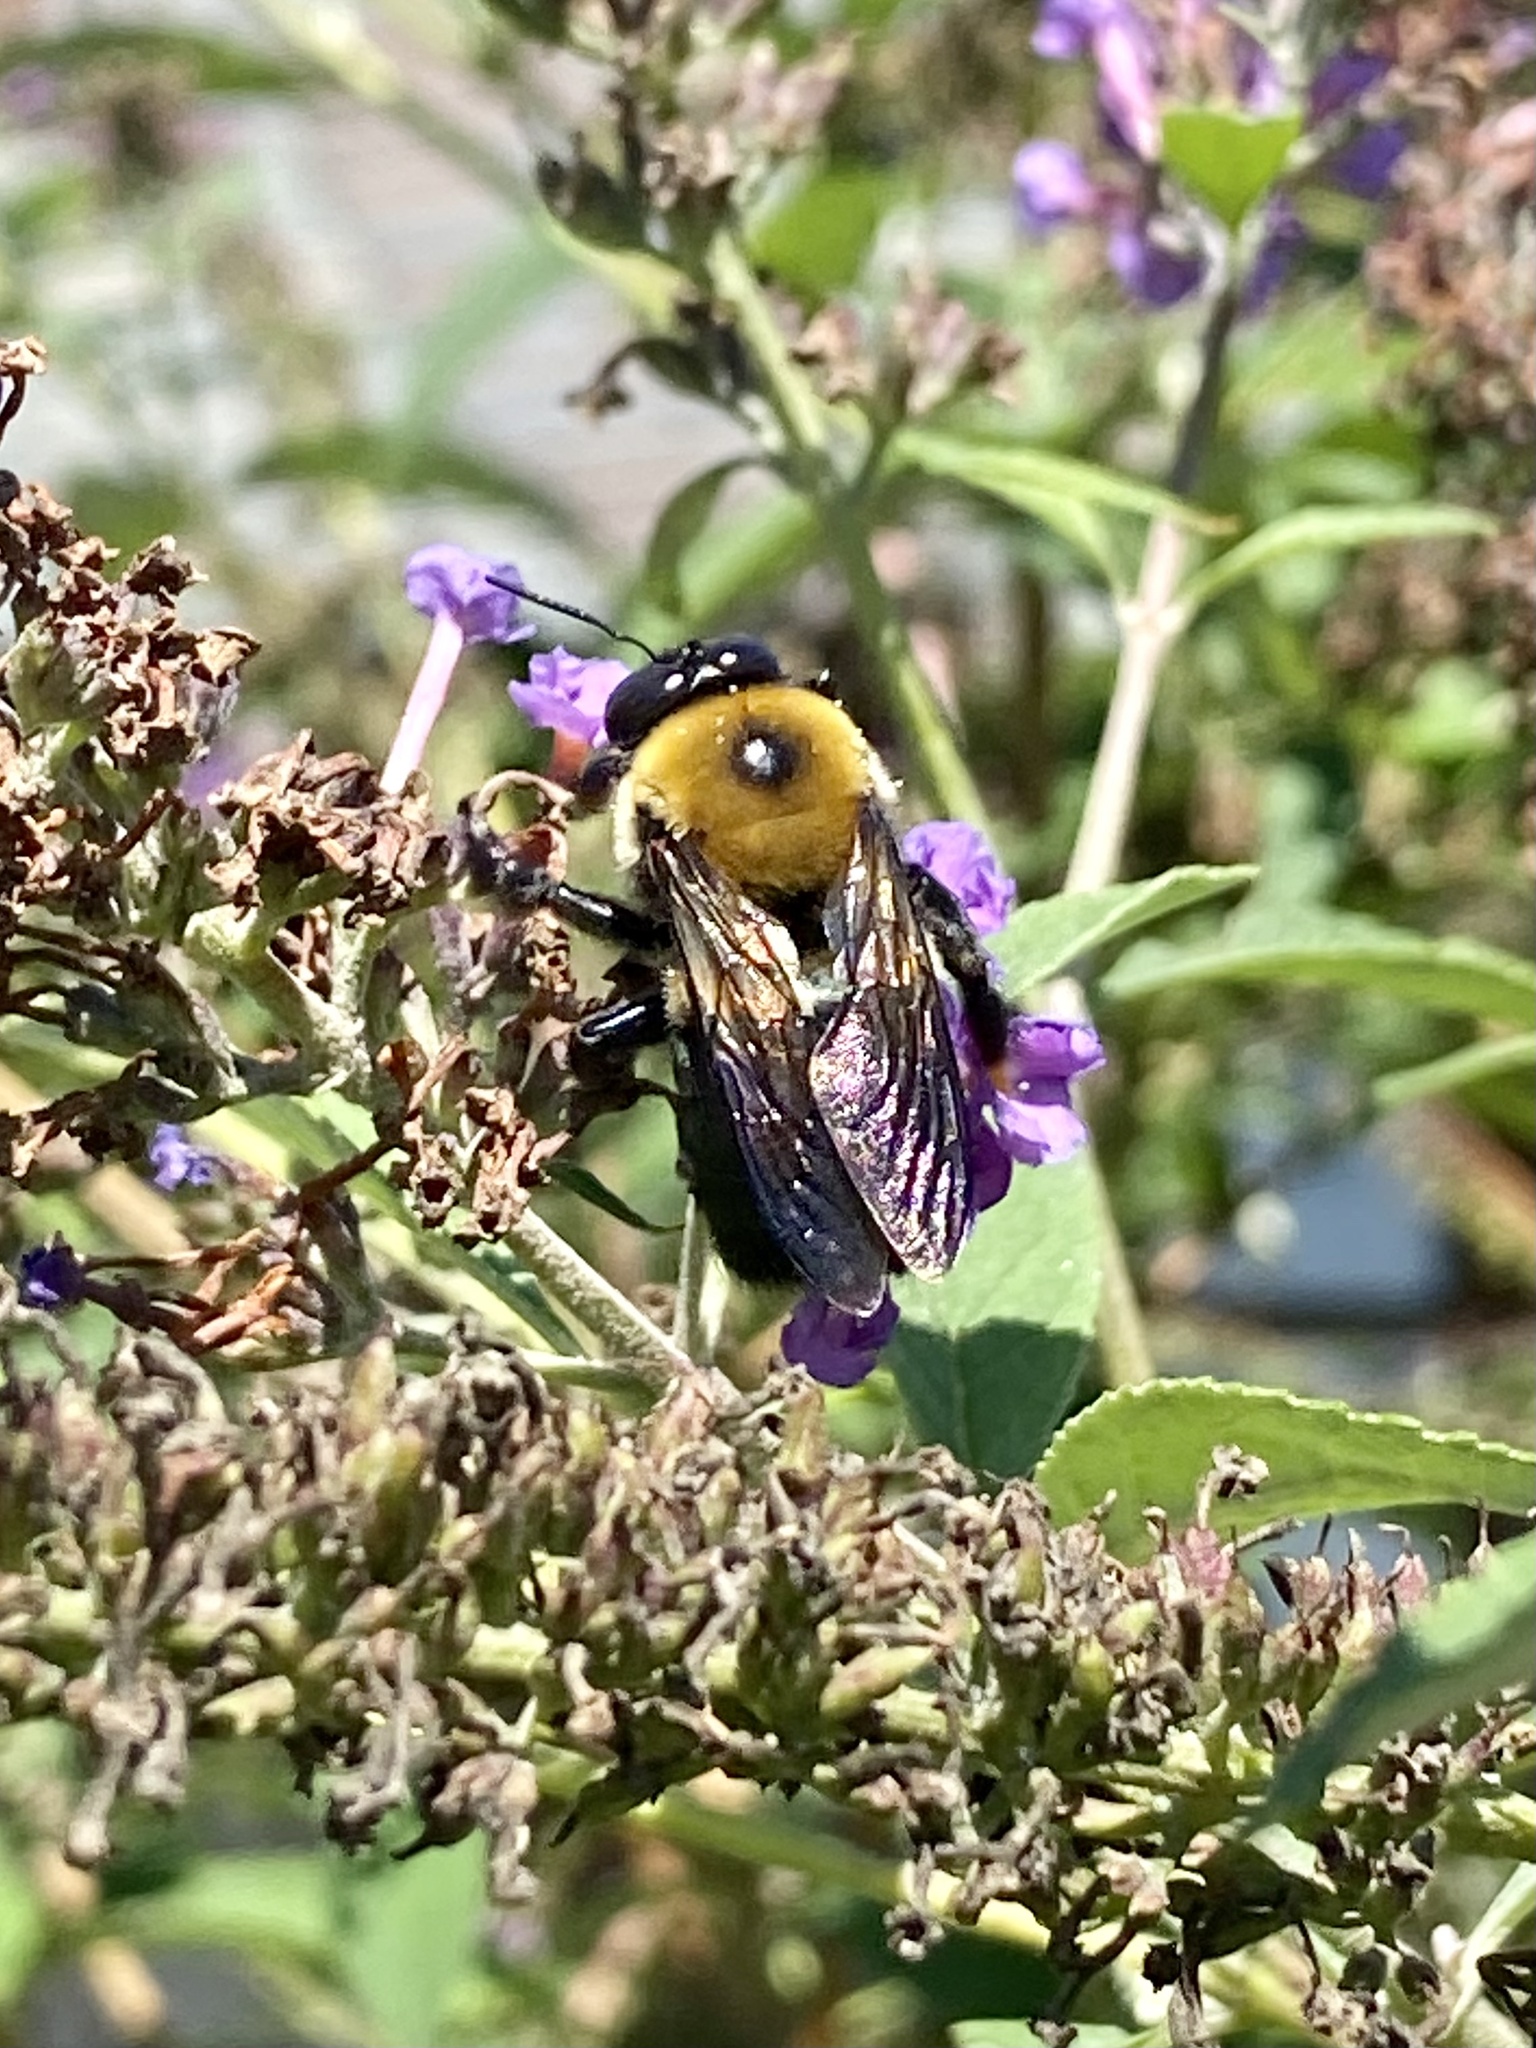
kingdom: Animalia
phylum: Arthropoda
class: Insecta
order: Hymenoptera
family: Apidae
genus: Xylocopa
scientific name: Xylocopa virginica
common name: Carpenter bee
